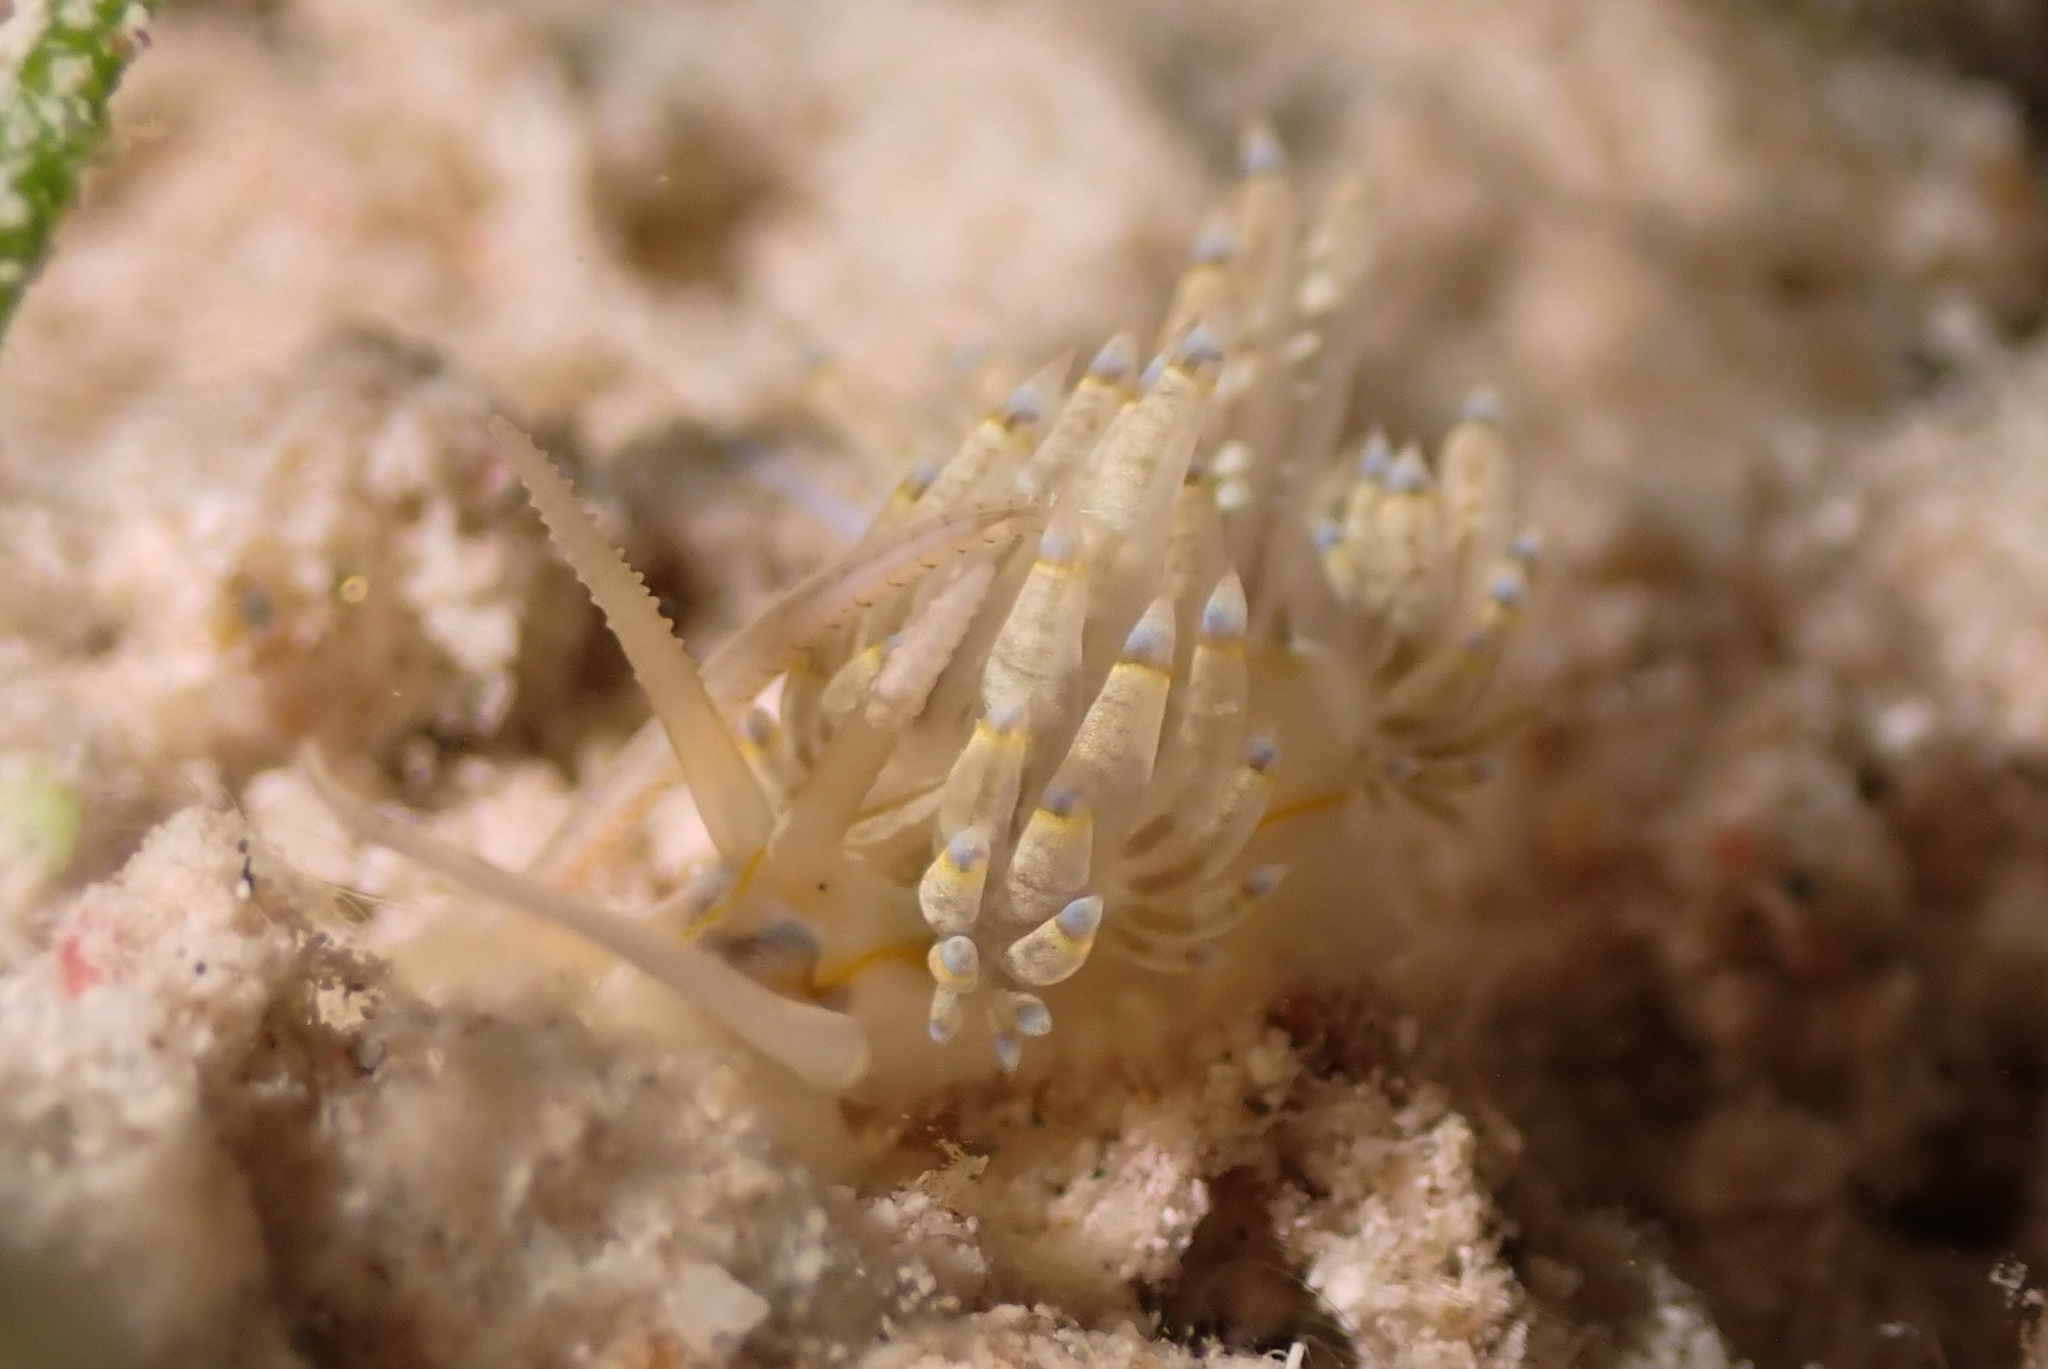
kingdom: Animalia
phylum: Mollusca
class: Gastropoda
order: Nudibranchia
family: Myrrhinidae
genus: Dondice
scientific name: Dondice occidentalis
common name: Fringe-back nudibranch
